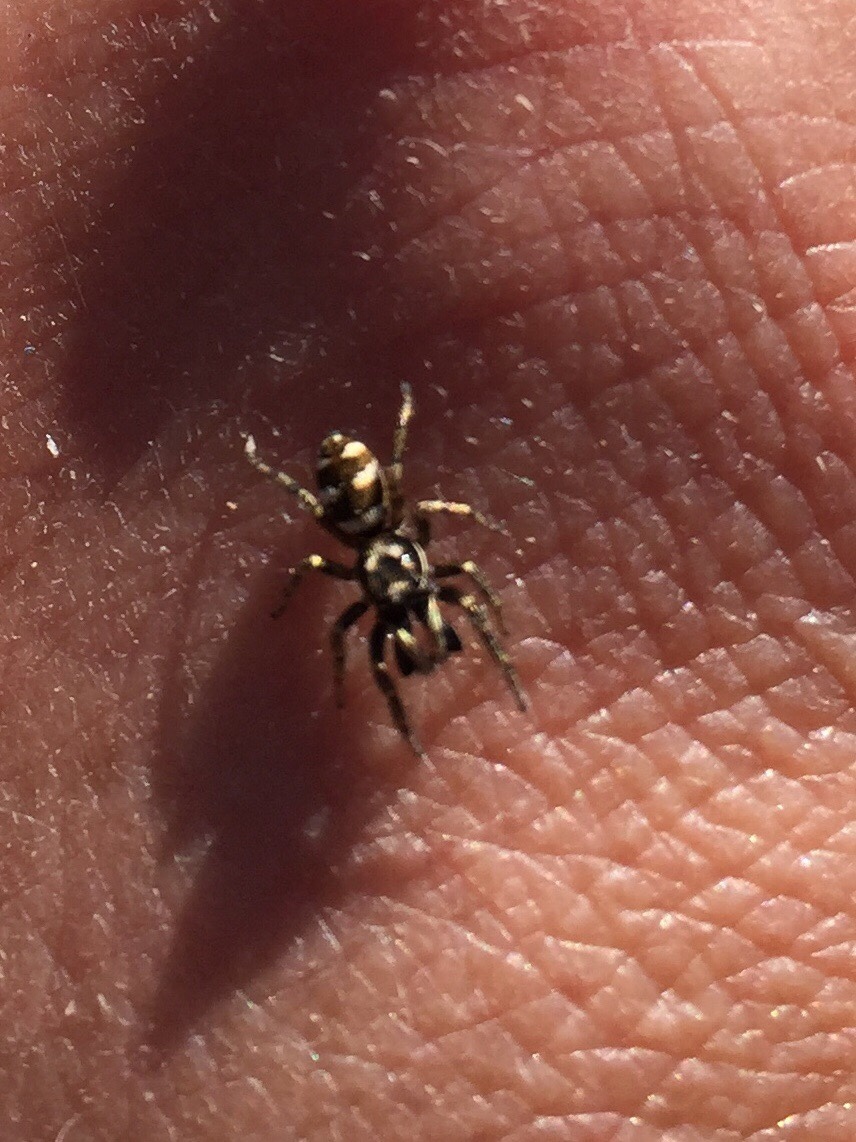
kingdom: Animalia
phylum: Arthropoda
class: Arachnida
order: Araneae
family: Salticidae
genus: Salticus
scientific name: Salticus scenicus
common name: Zebra jumper
